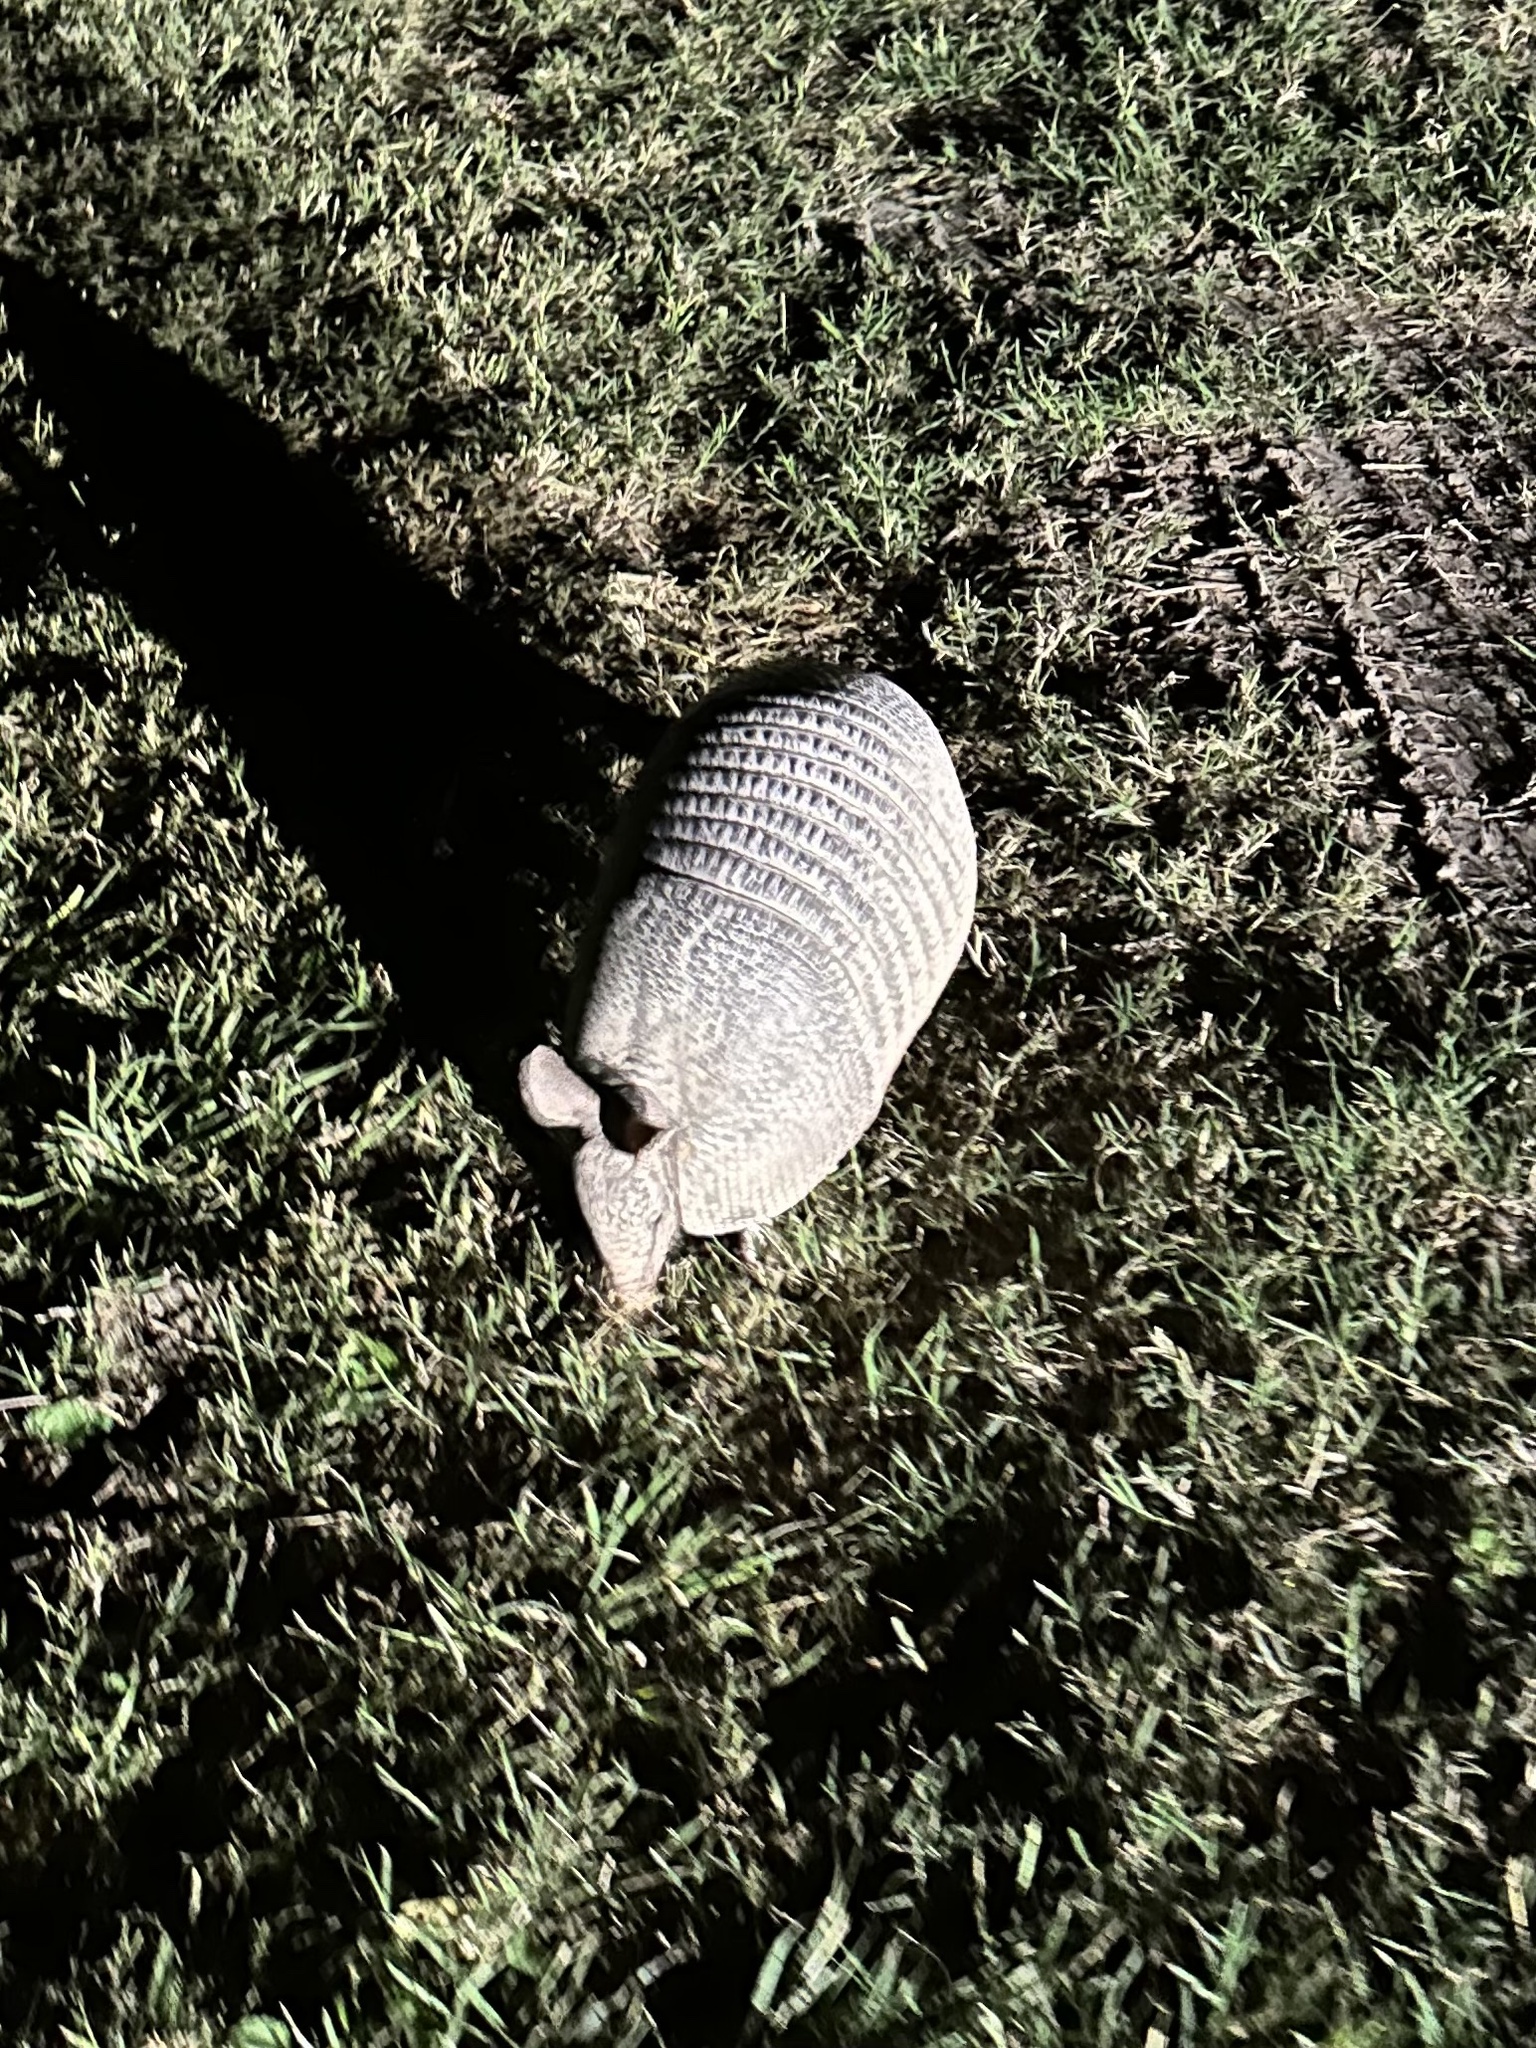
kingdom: Animalia
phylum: Chordata
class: Mammalia
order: Cingulata
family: Dasypodidae
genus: Dasypus
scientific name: Dasypus novemcinctus
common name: Nine-banded armadillo
